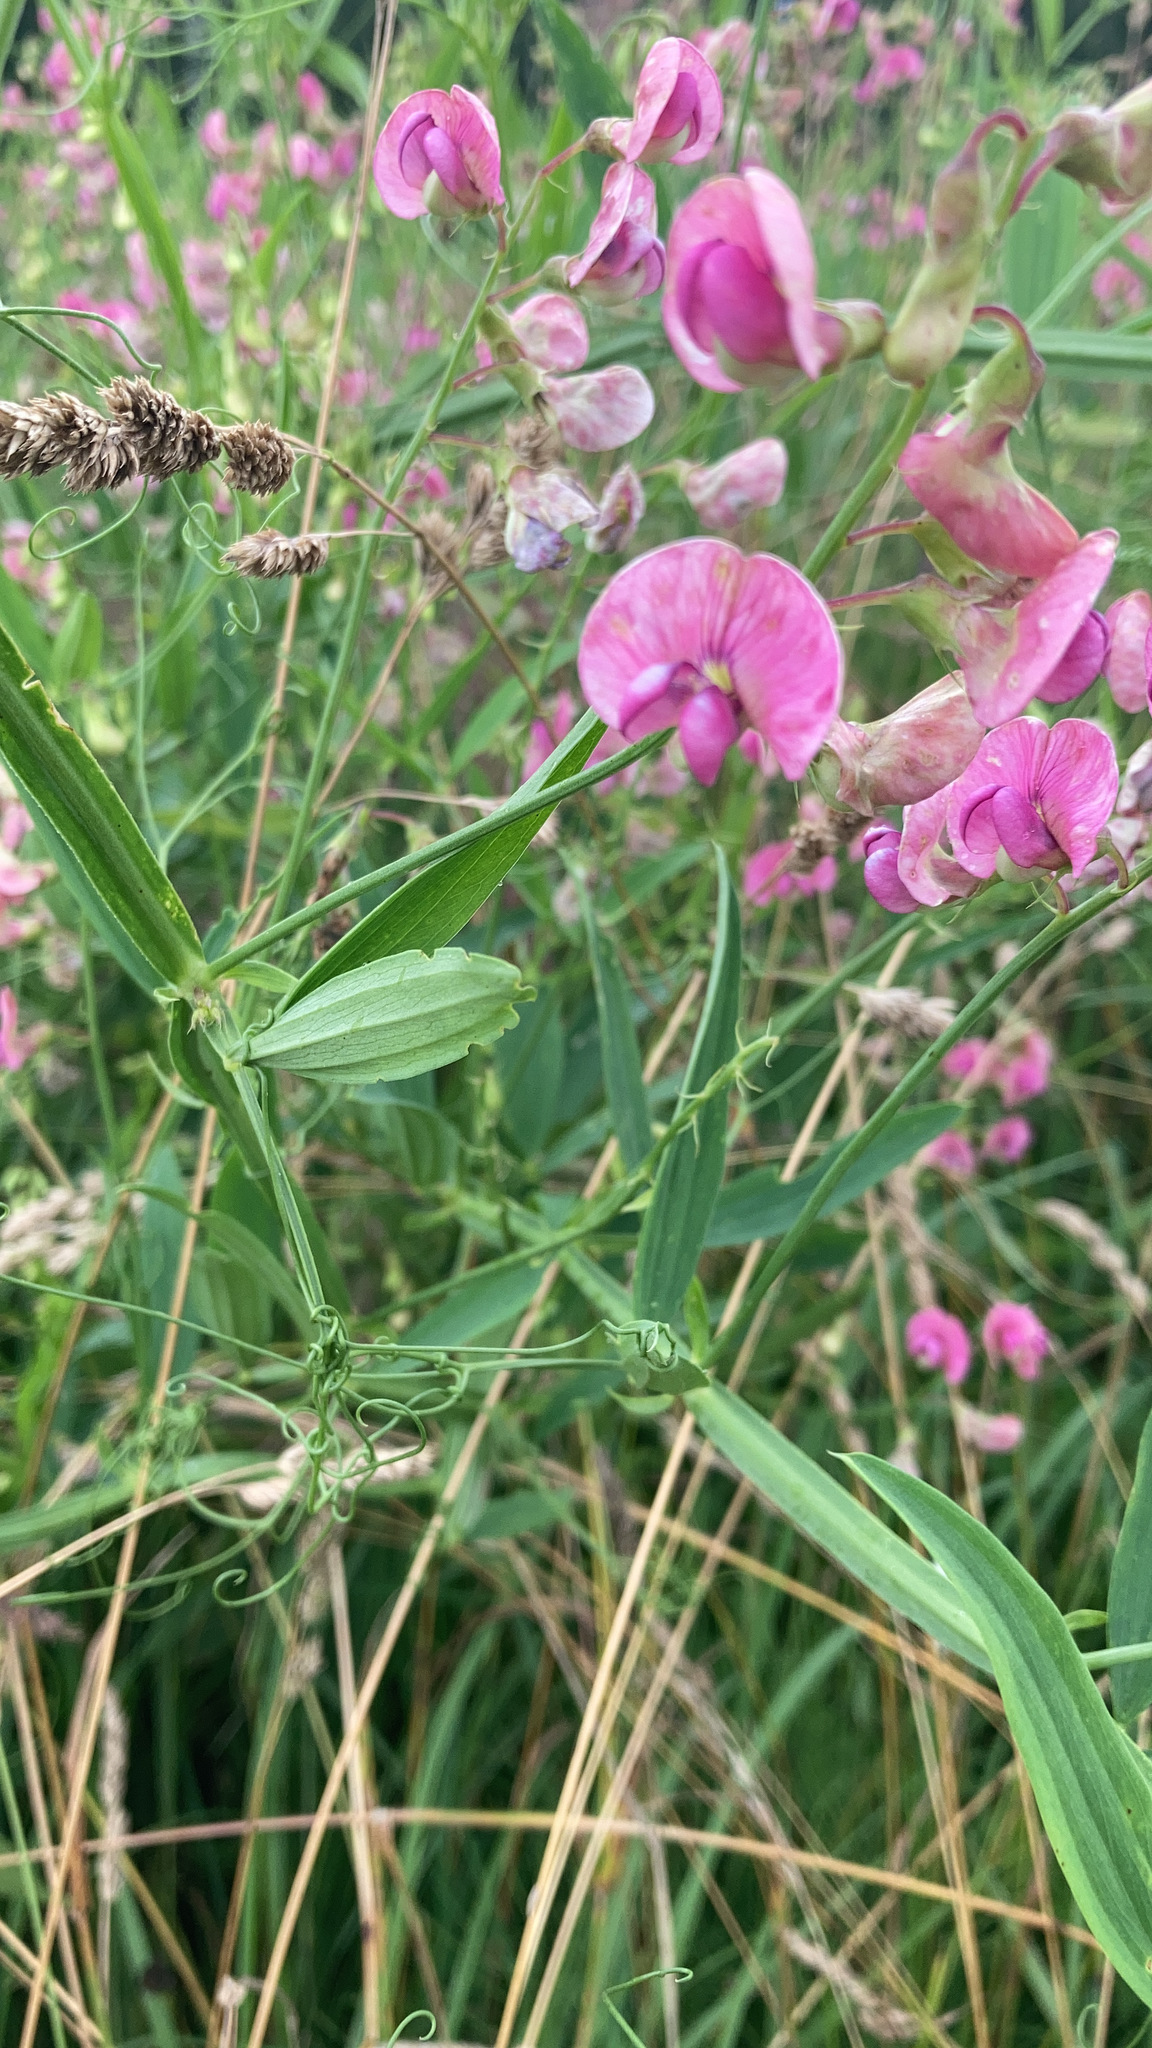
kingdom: Plantae
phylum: Tracheophyta
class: Magnoliopsida
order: Fabales
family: Fabaceae
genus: Lathyrus
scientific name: Lathyrus sylvestris
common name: Flat pea
